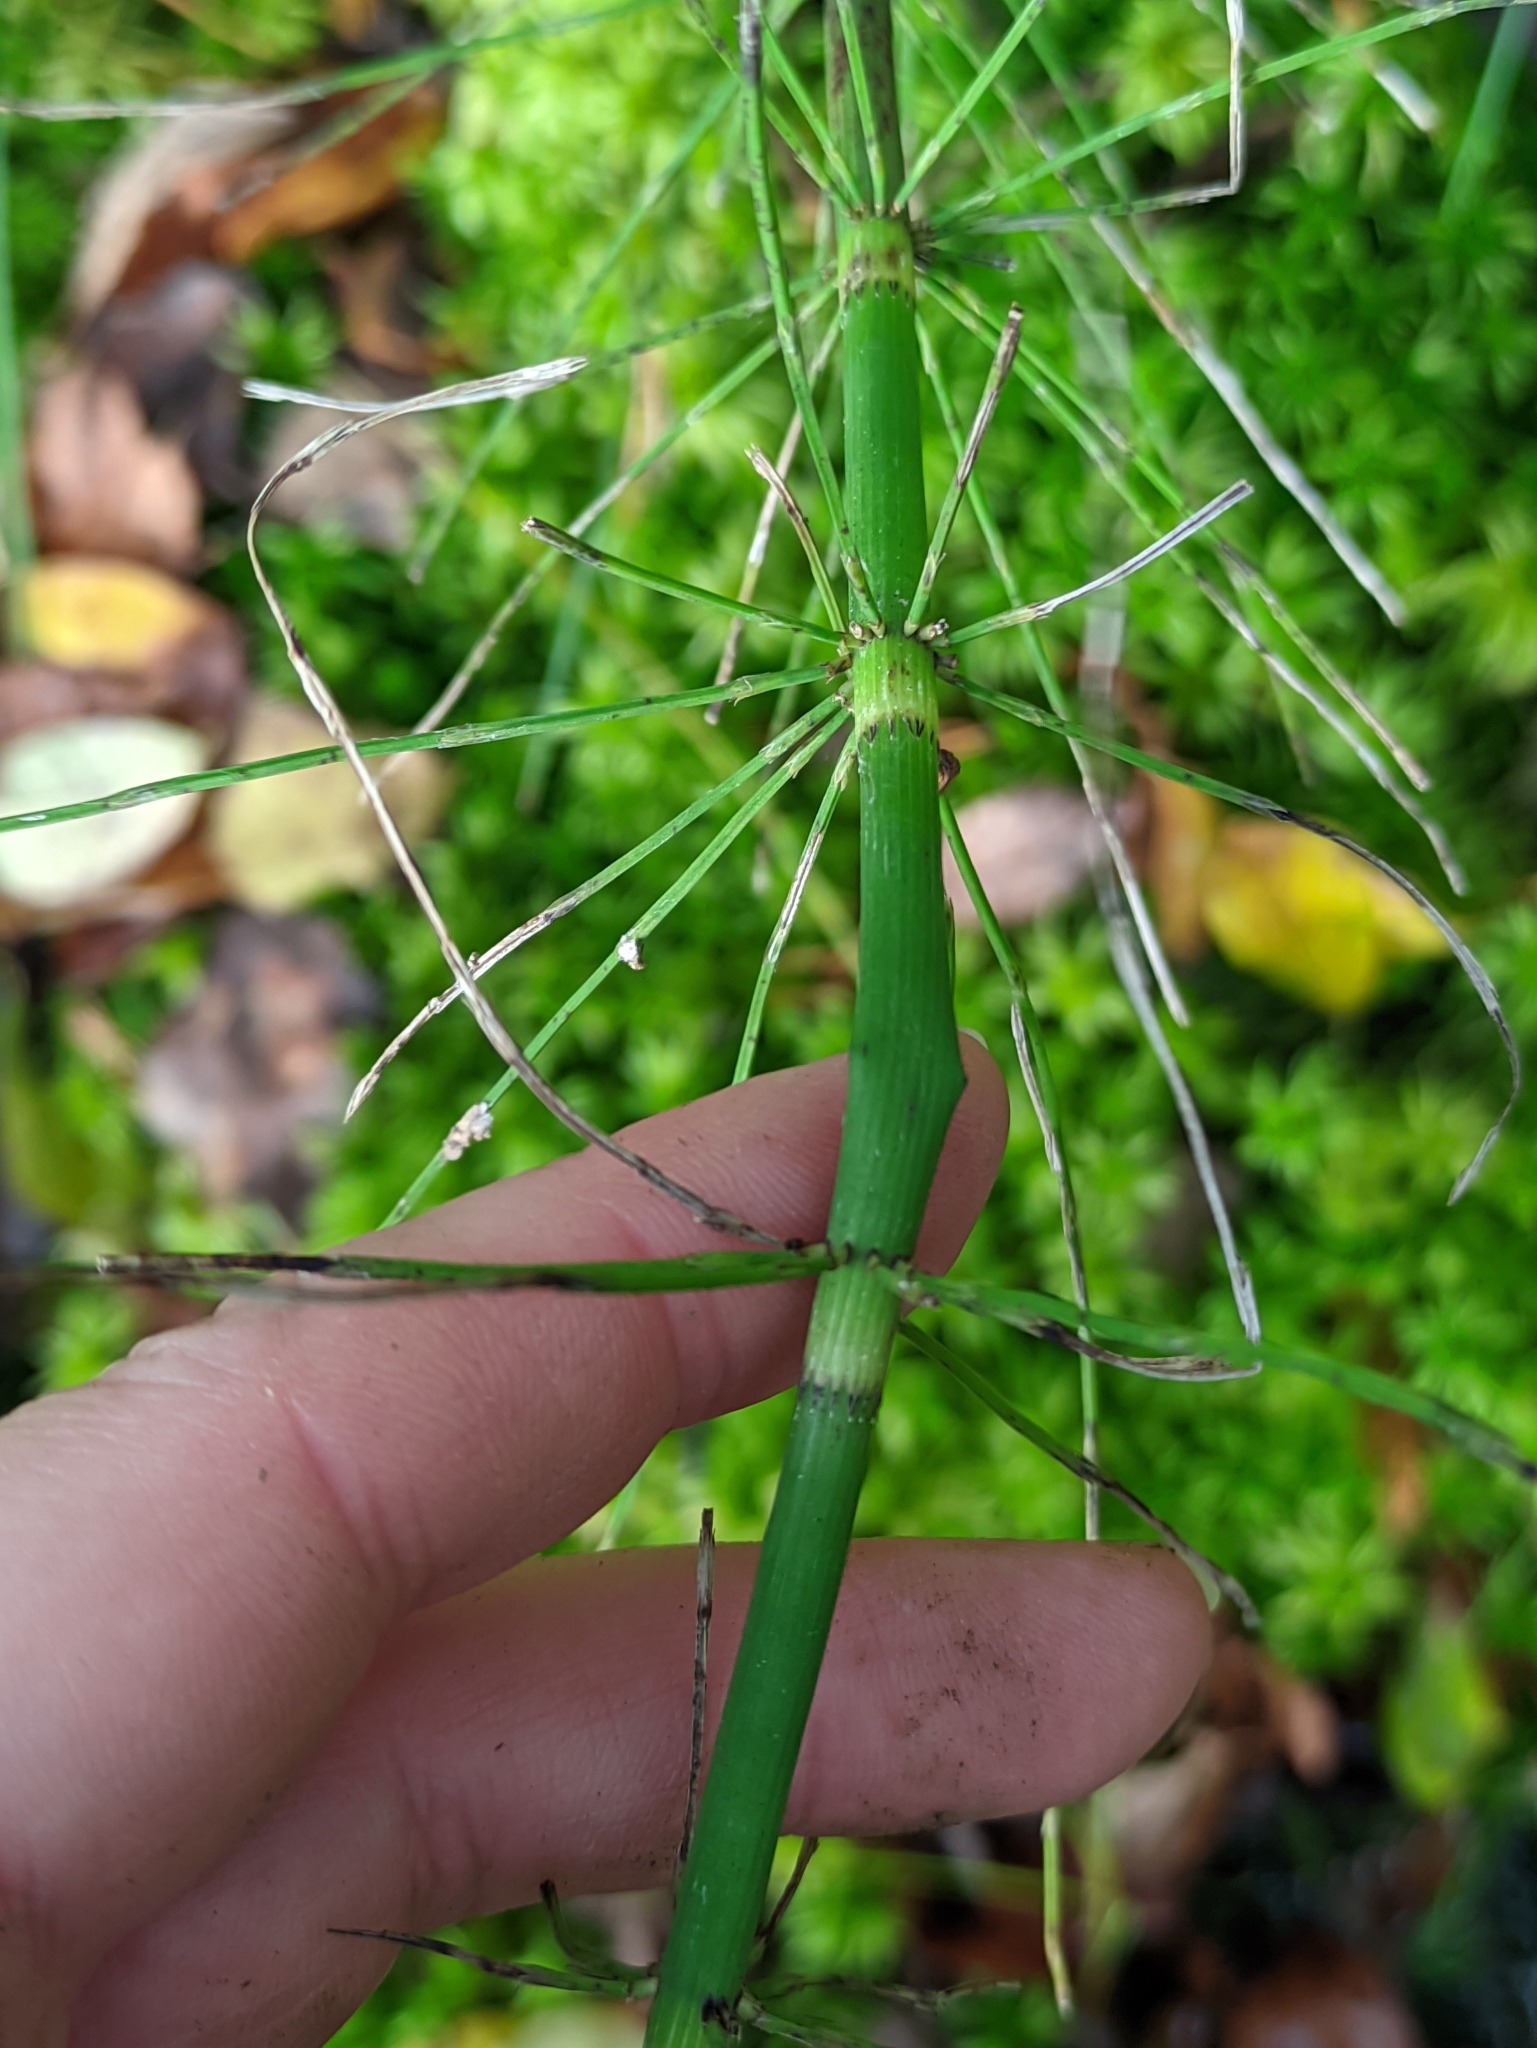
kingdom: Plantae
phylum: Tracheophyta
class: Polypodiopsida
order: Equisetales
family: Equisetaceae
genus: Equisetum
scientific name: Equisetum fluviatile
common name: Water horsetail
